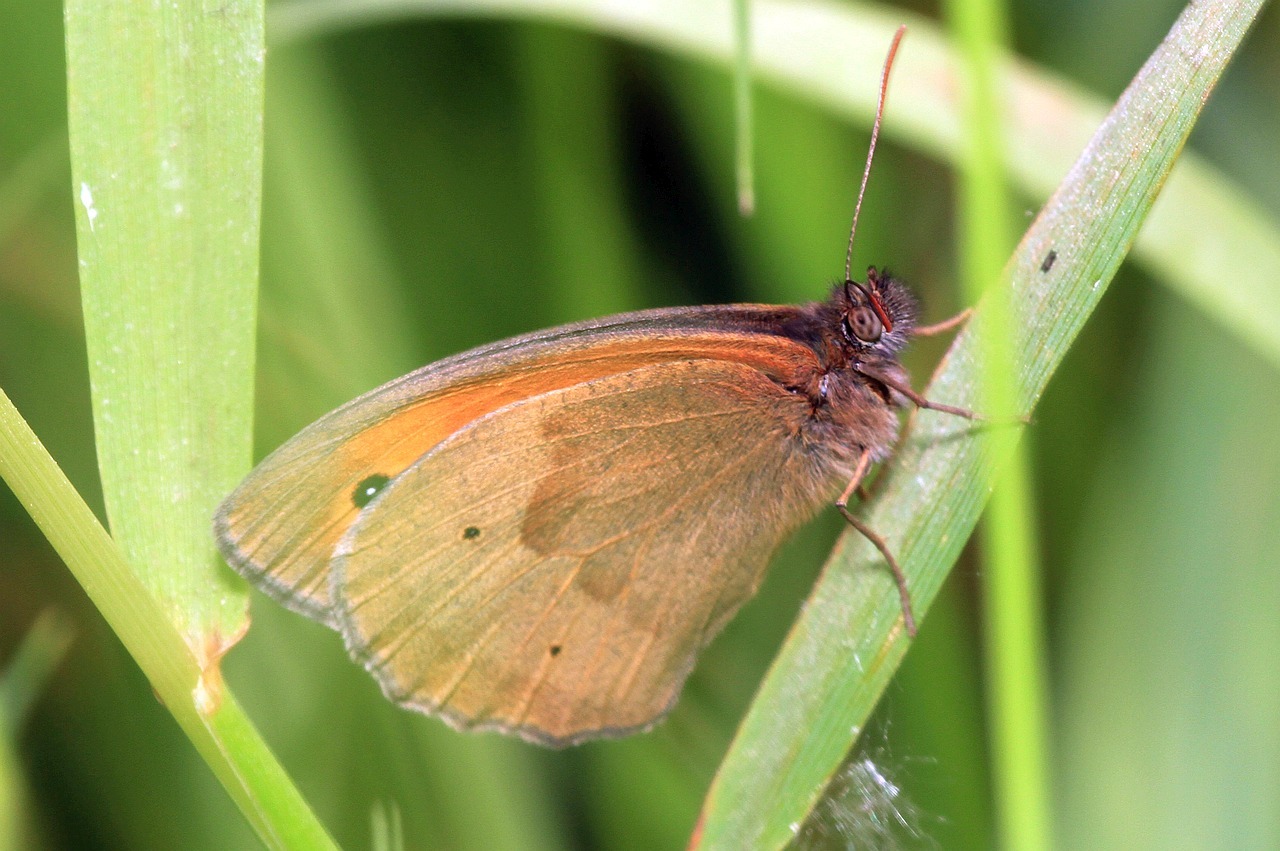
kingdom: Animalia
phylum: Arthropoda
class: Insecta
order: Lepidoptera
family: Nymphalidae
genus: Maniola
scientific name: Maniola jurtina
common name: Meadow brown
